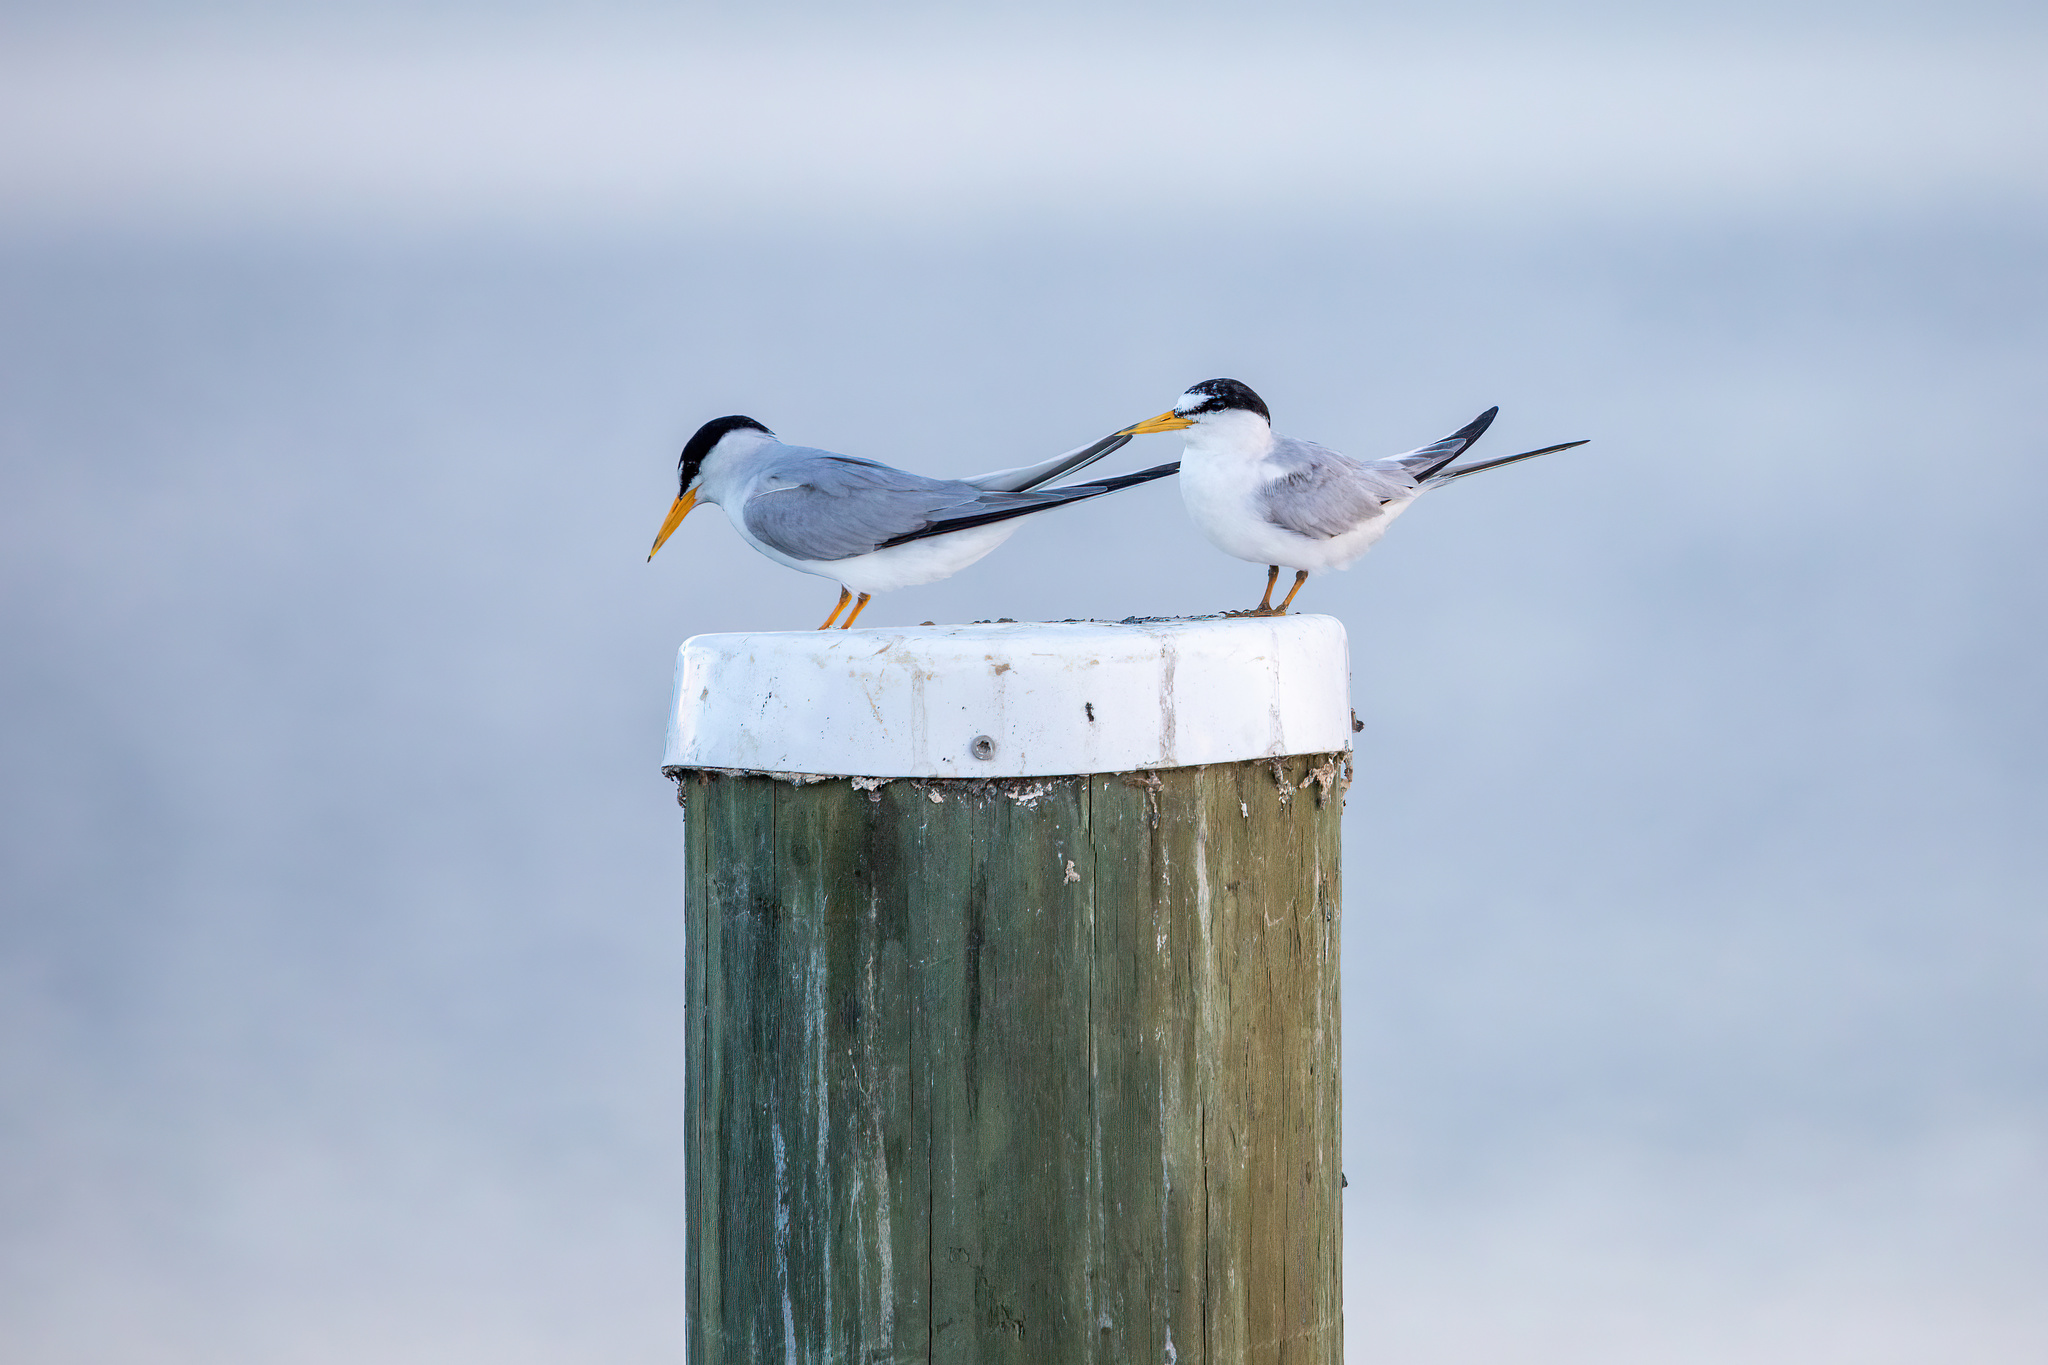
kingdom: Animalia
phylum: Chordata
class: Aves
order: Charadriiformes
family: Laridae
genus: Sternula
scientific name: Sternula antillarum
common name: Least tern
